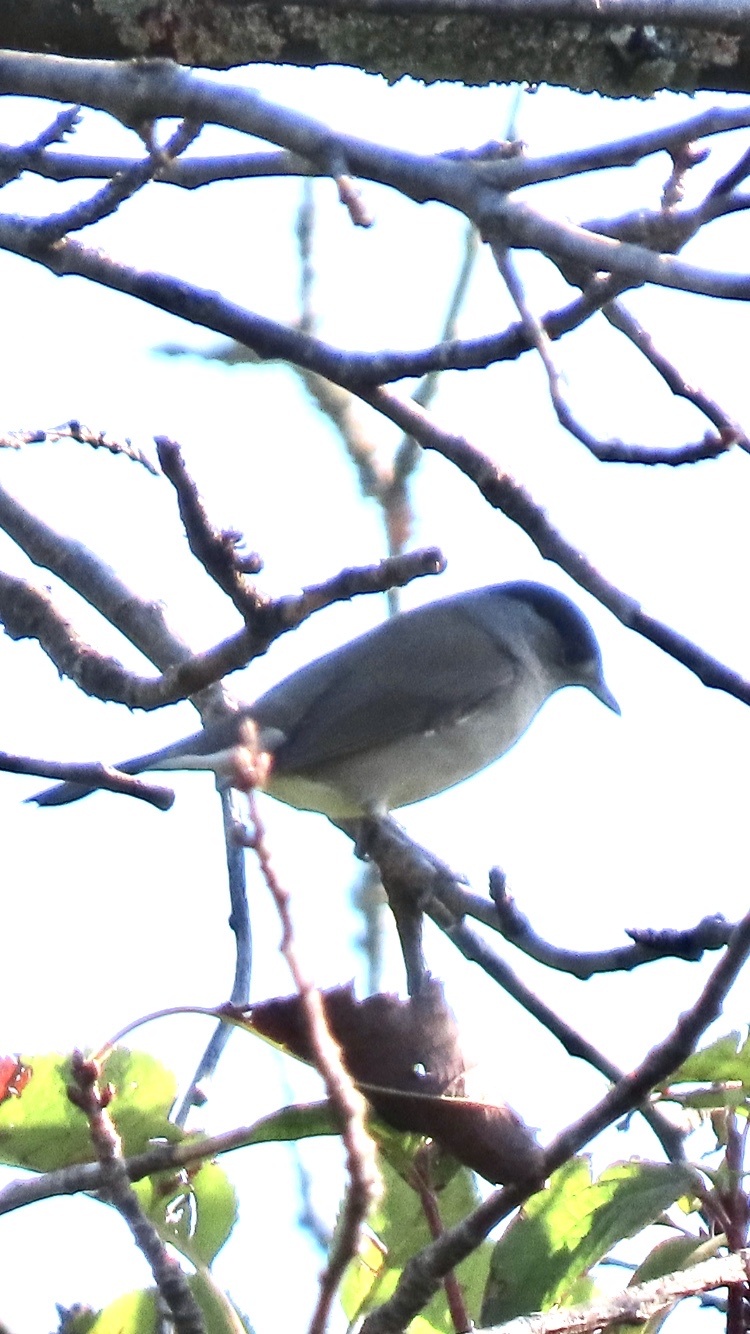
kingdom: Animalia
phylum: Chordata
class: Aves
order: Passeriformes
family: Sylviidae
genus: Sylvia
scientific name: Sylvia atricapilla
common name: Eurasian blackcap
